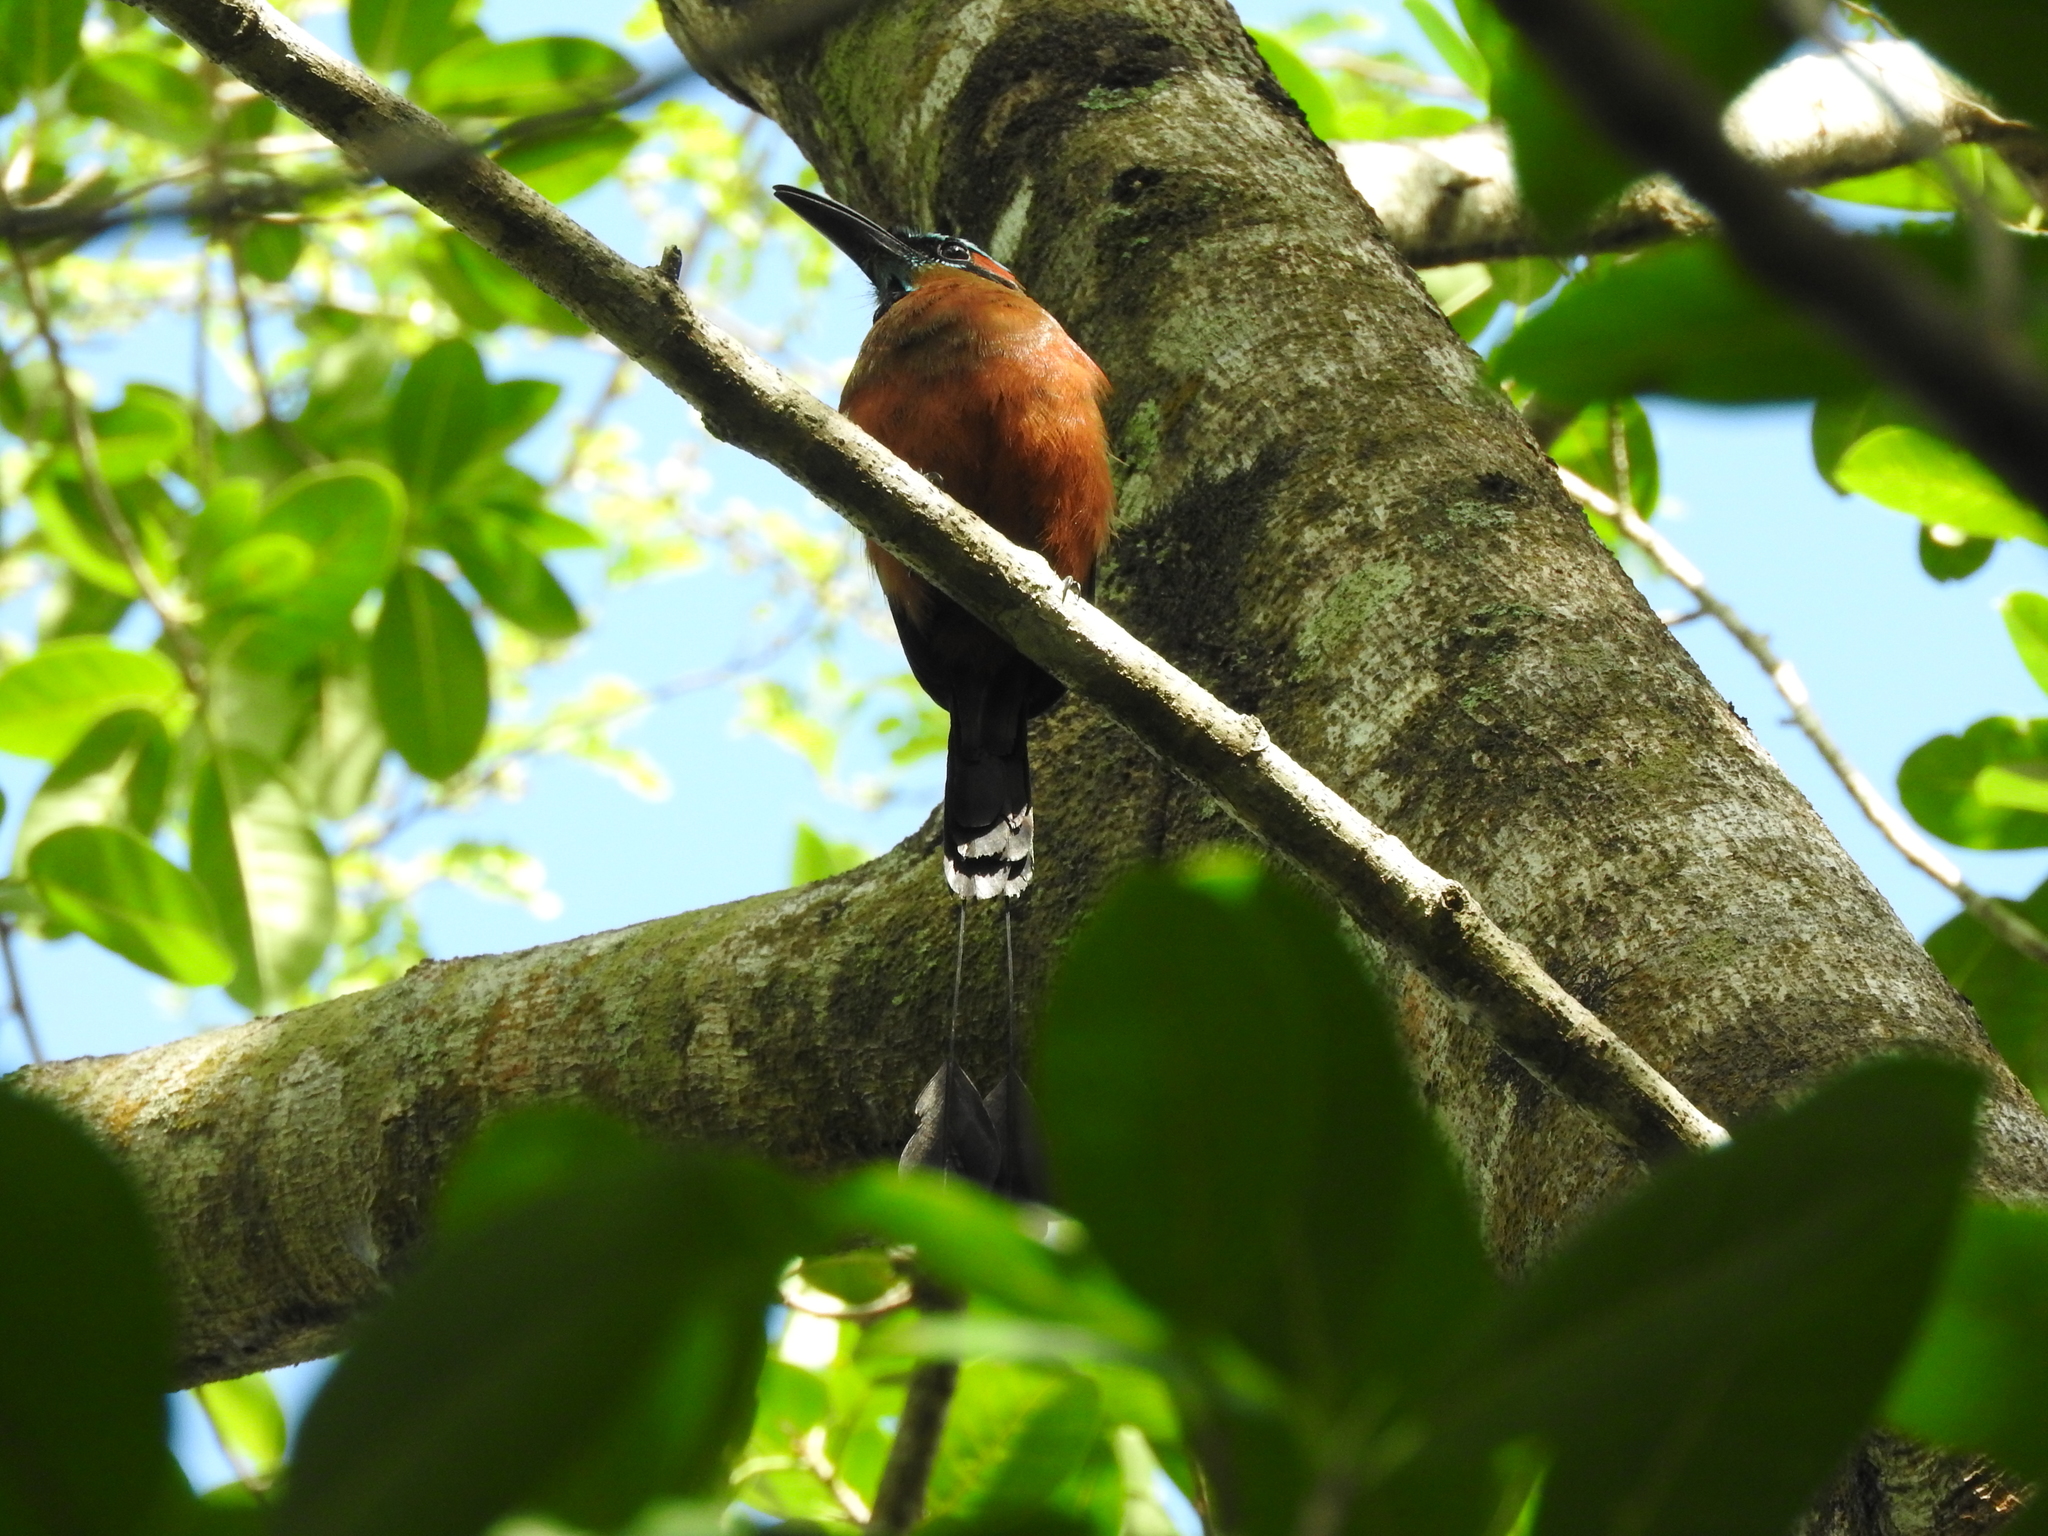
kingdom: Animalia
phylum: Chordata
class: Aves
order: Coraciiformes
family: Momotidae
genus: Eumomota
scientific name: Eumomota superciliosa
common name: Turquoise-browed motmot
